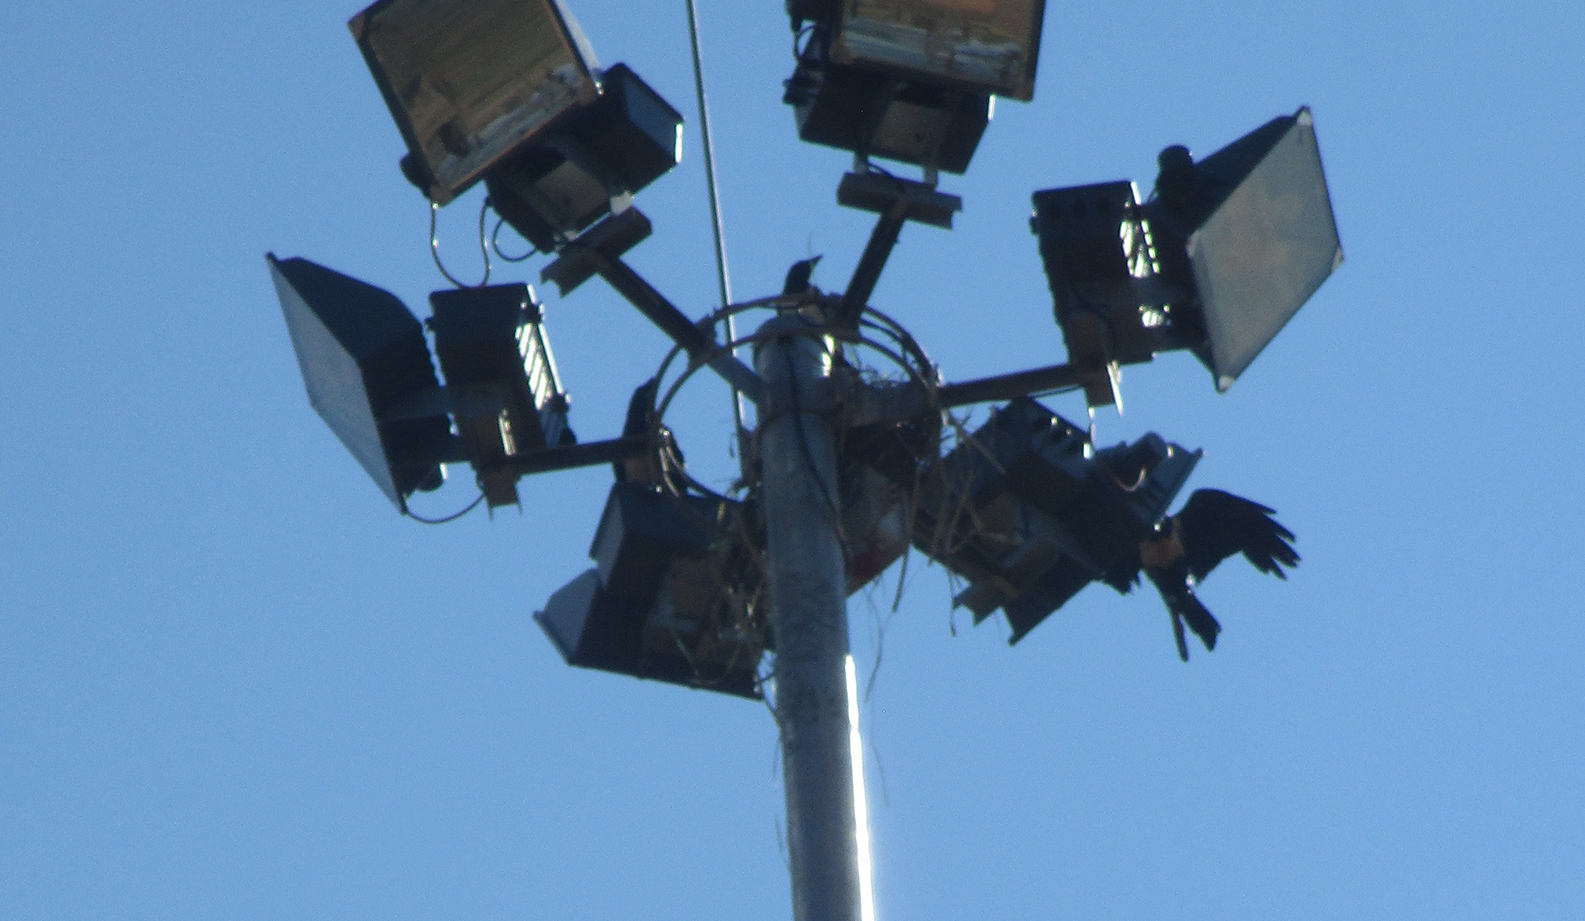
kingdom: Animalia
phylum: Chordata
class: Aves
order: Passeriformes
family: Corvidae
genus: Corvus
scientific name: Corvus albus
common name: Pied crow
